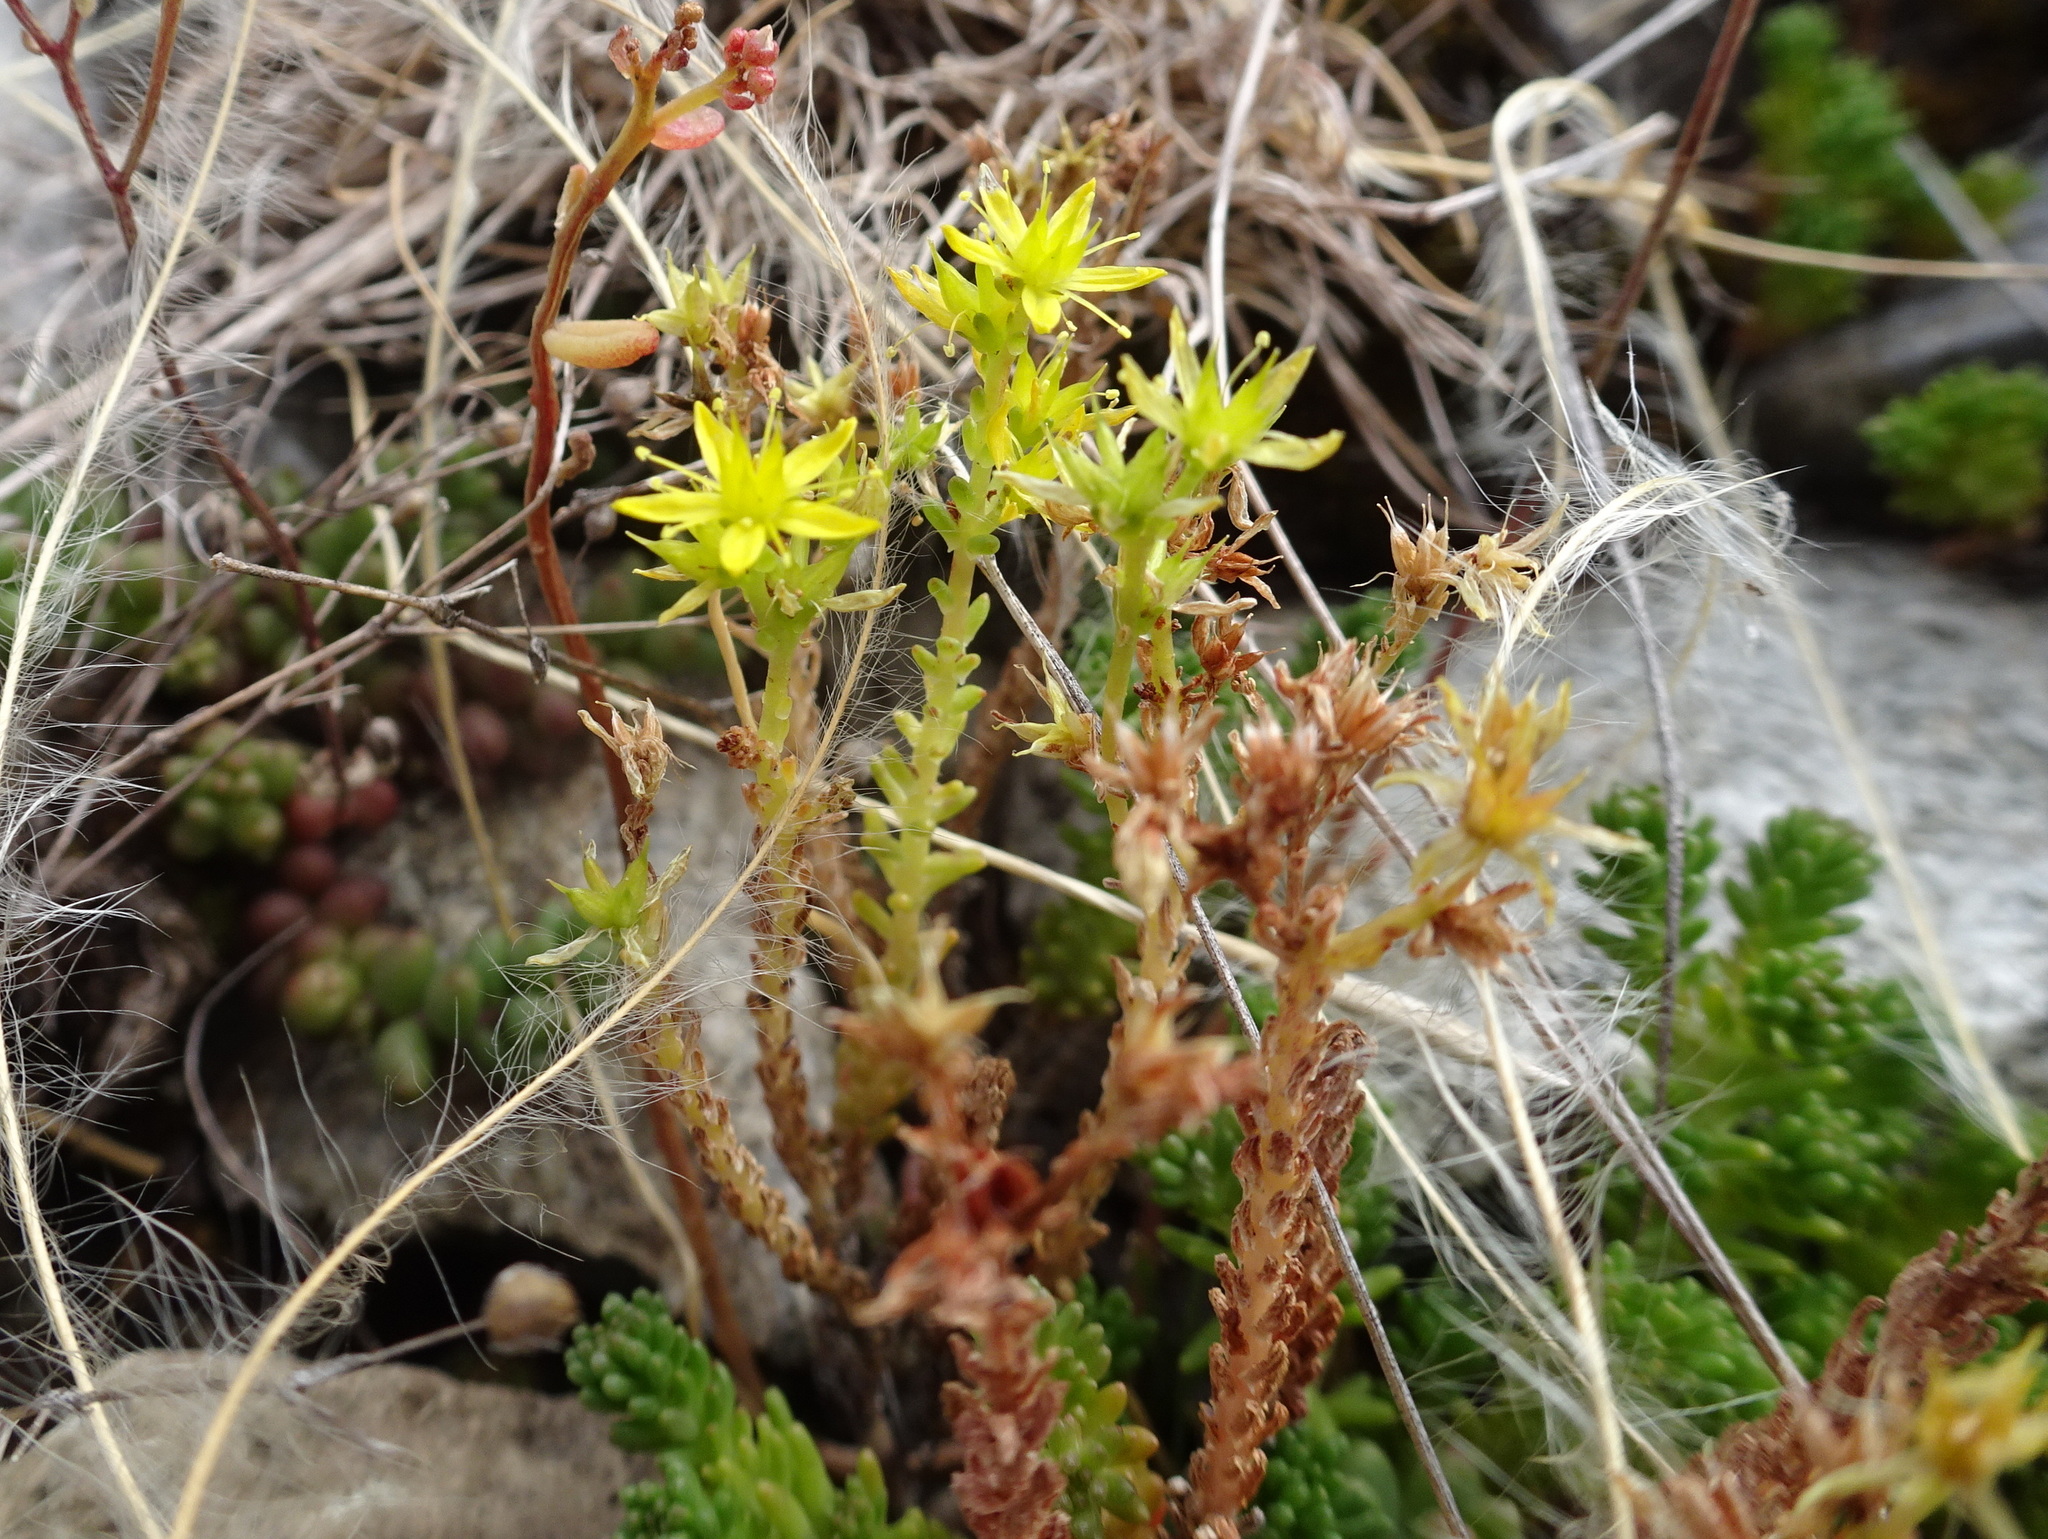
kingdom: Plantae
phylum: Tracheophyta
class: Magnoliopsida
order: Saxifragales
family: Crassulaceae
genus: Sedum
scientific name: Sedum sexangulare
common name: Tasteless stonecrop
